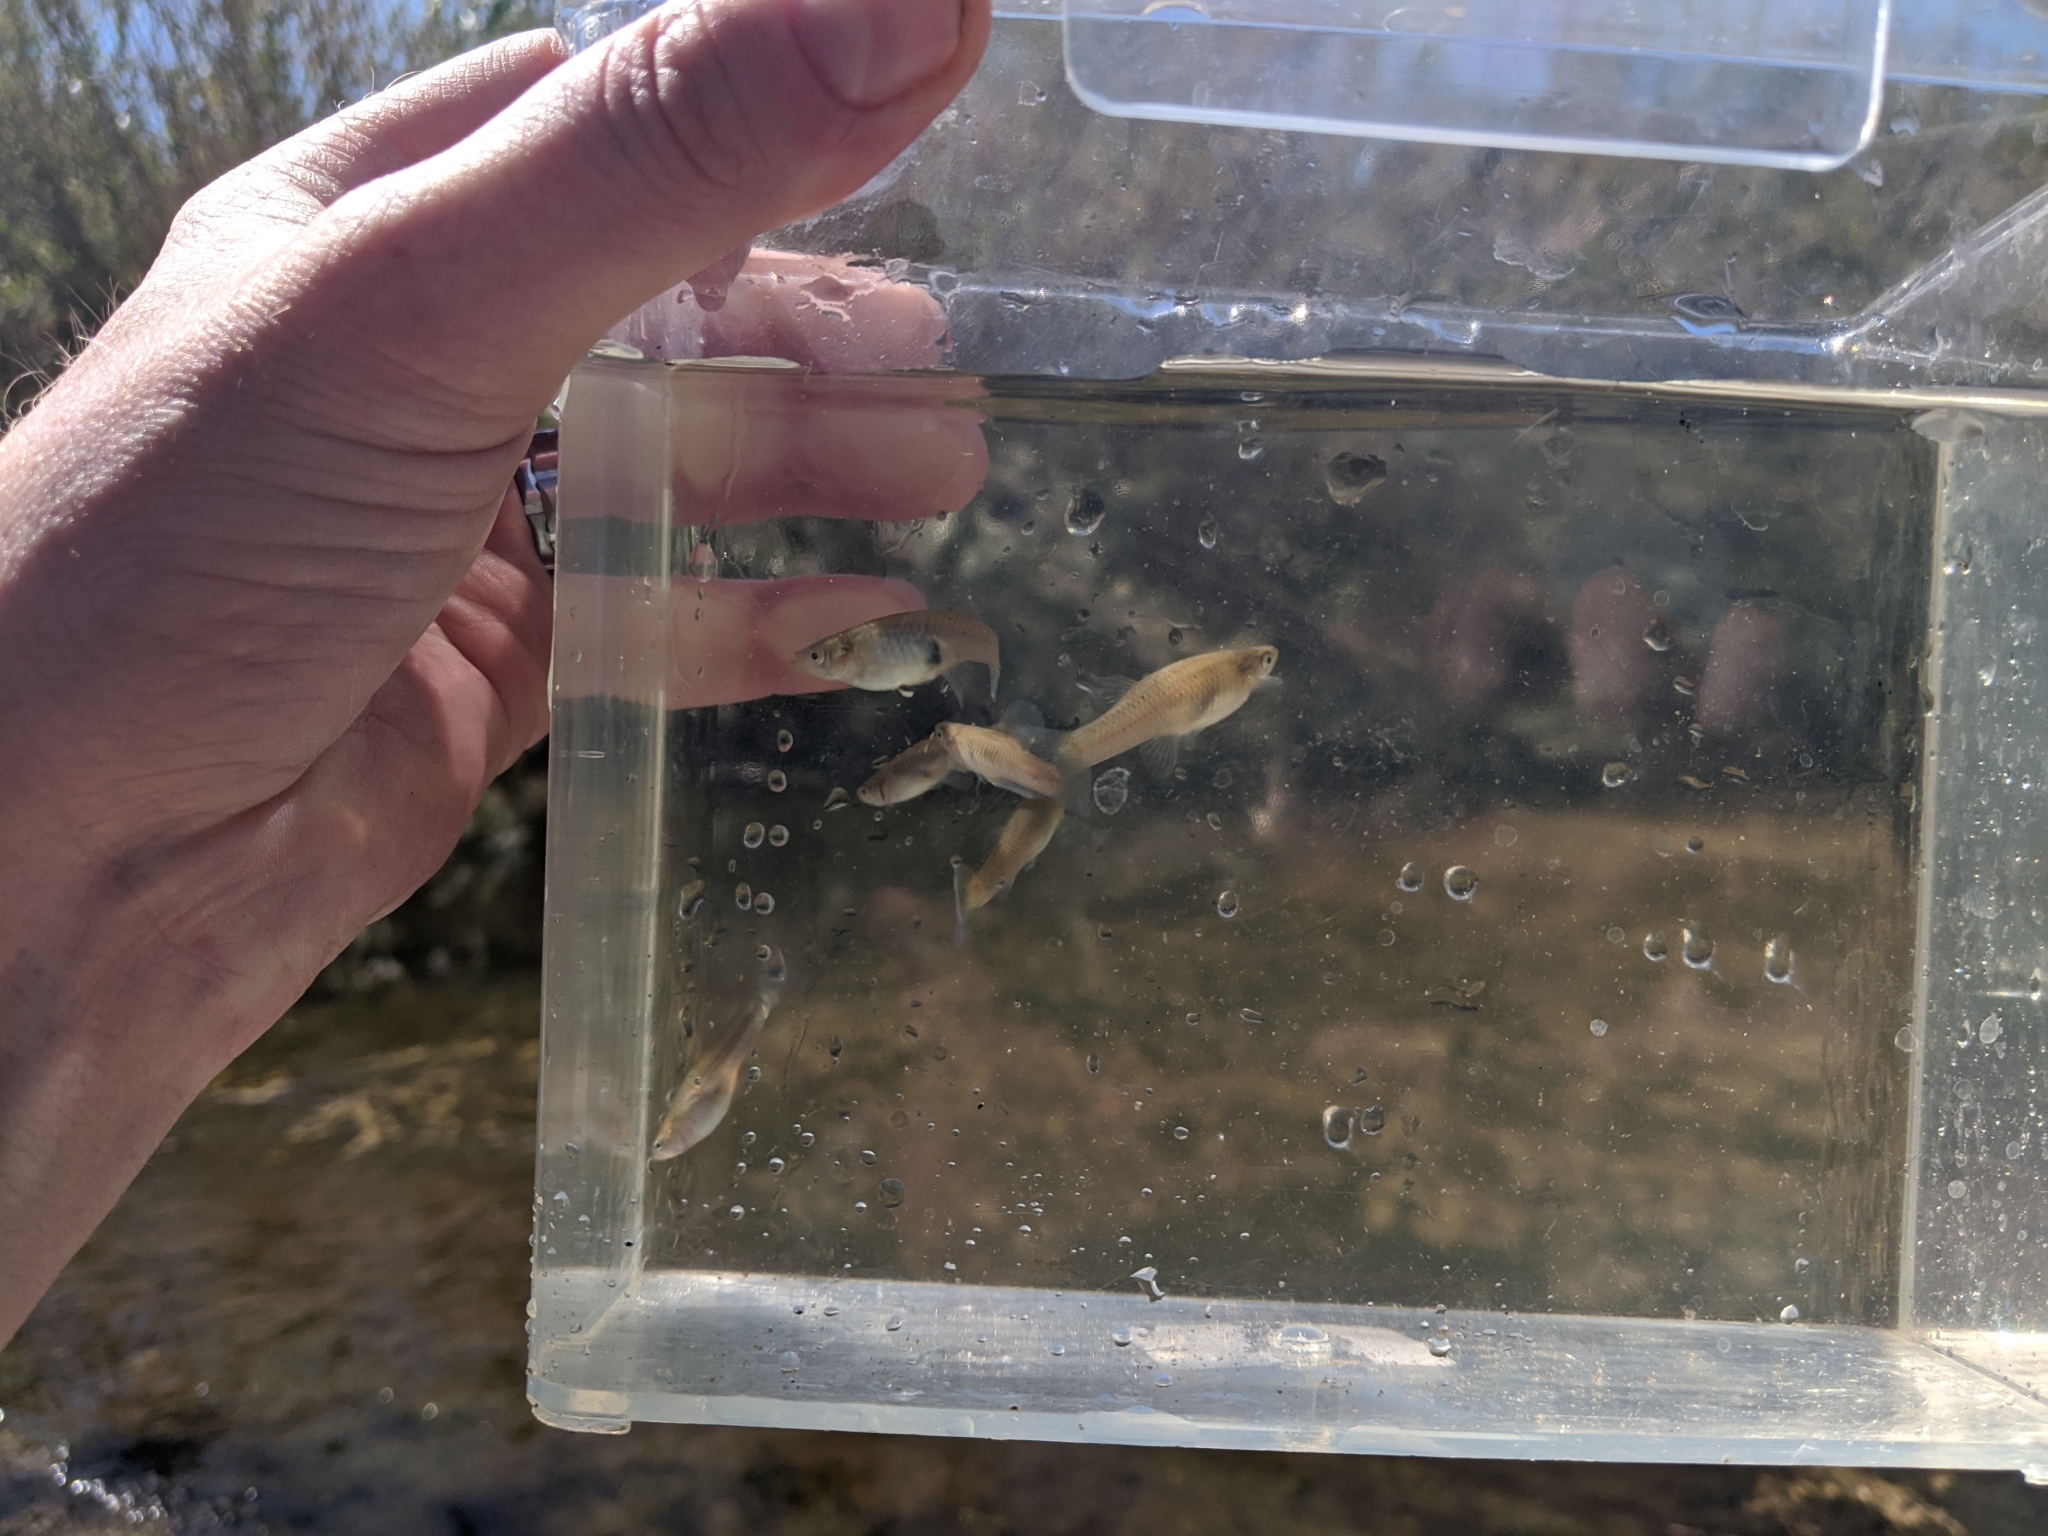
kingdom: Animalia
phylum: Chordata
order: Cyprinodontiformes
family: Poeciliidae
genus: Gambusia
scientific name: Gambusia affinis
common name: Mosquitofish
